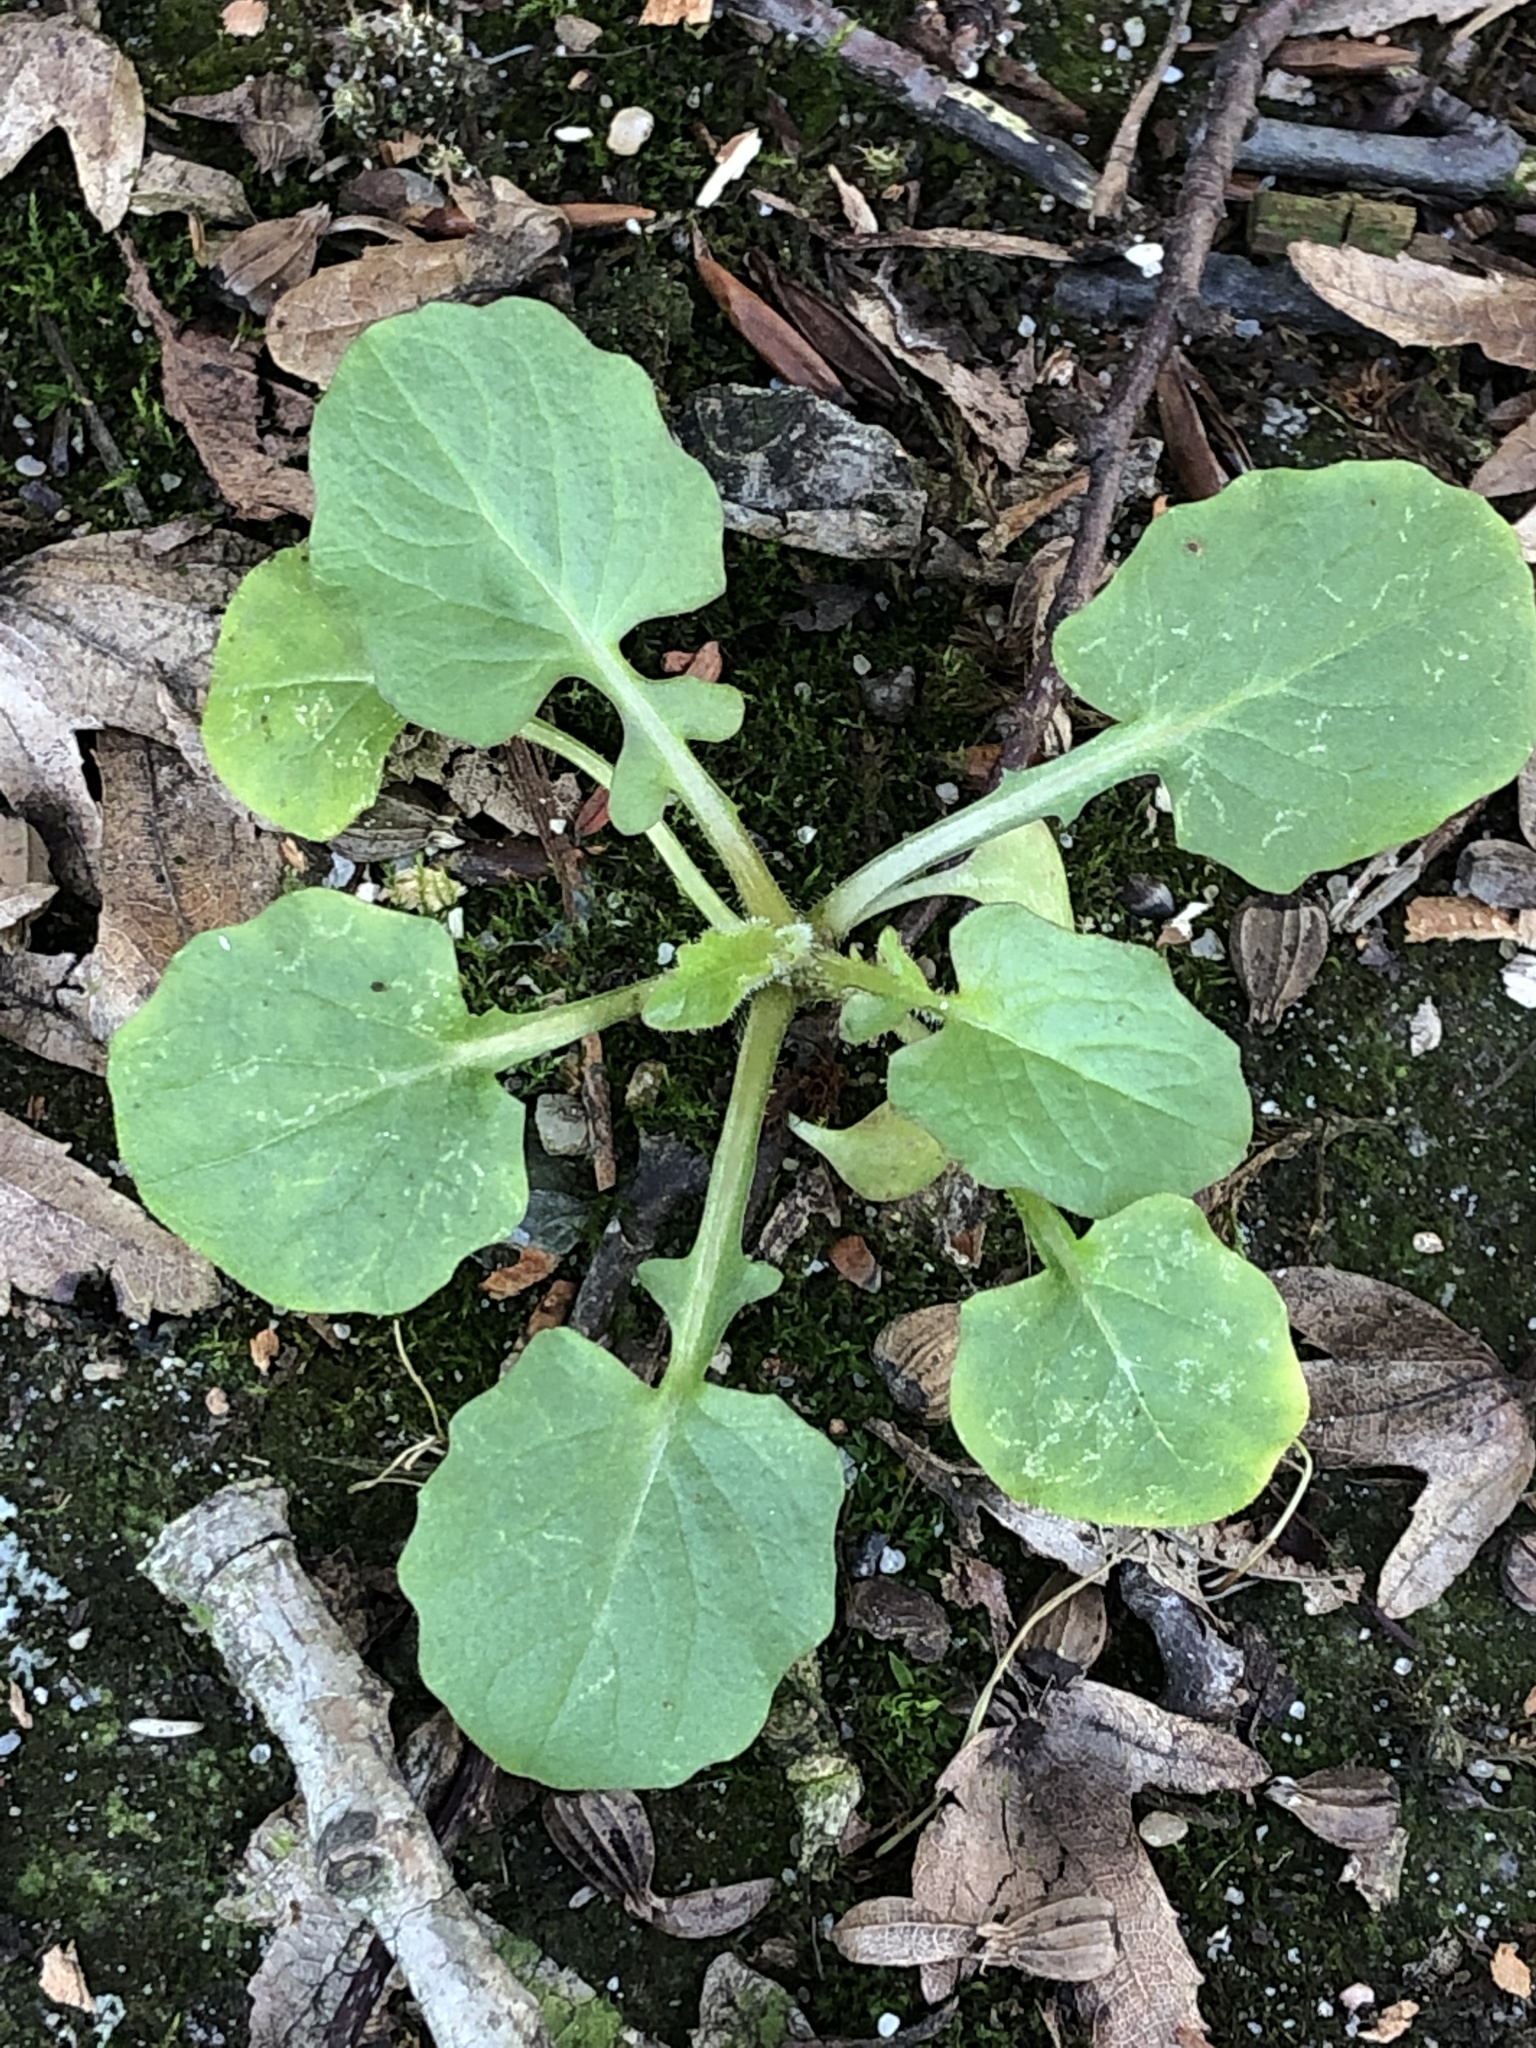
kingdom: Plantae
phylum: Tracheophyta
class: Magnoliopsida
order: Asterales
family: Asteraceae
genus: Lapsana
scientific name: Lapsana communis
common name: Nipplewort
